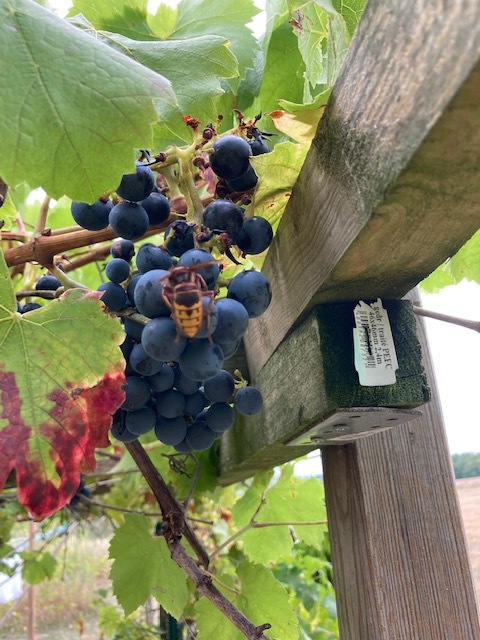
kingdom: Animalia
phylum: Arthropoda
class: Insecta
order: Hymenoptera
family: Vespidae
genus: Vespa
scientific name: Vespa crabro
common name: Hornet
